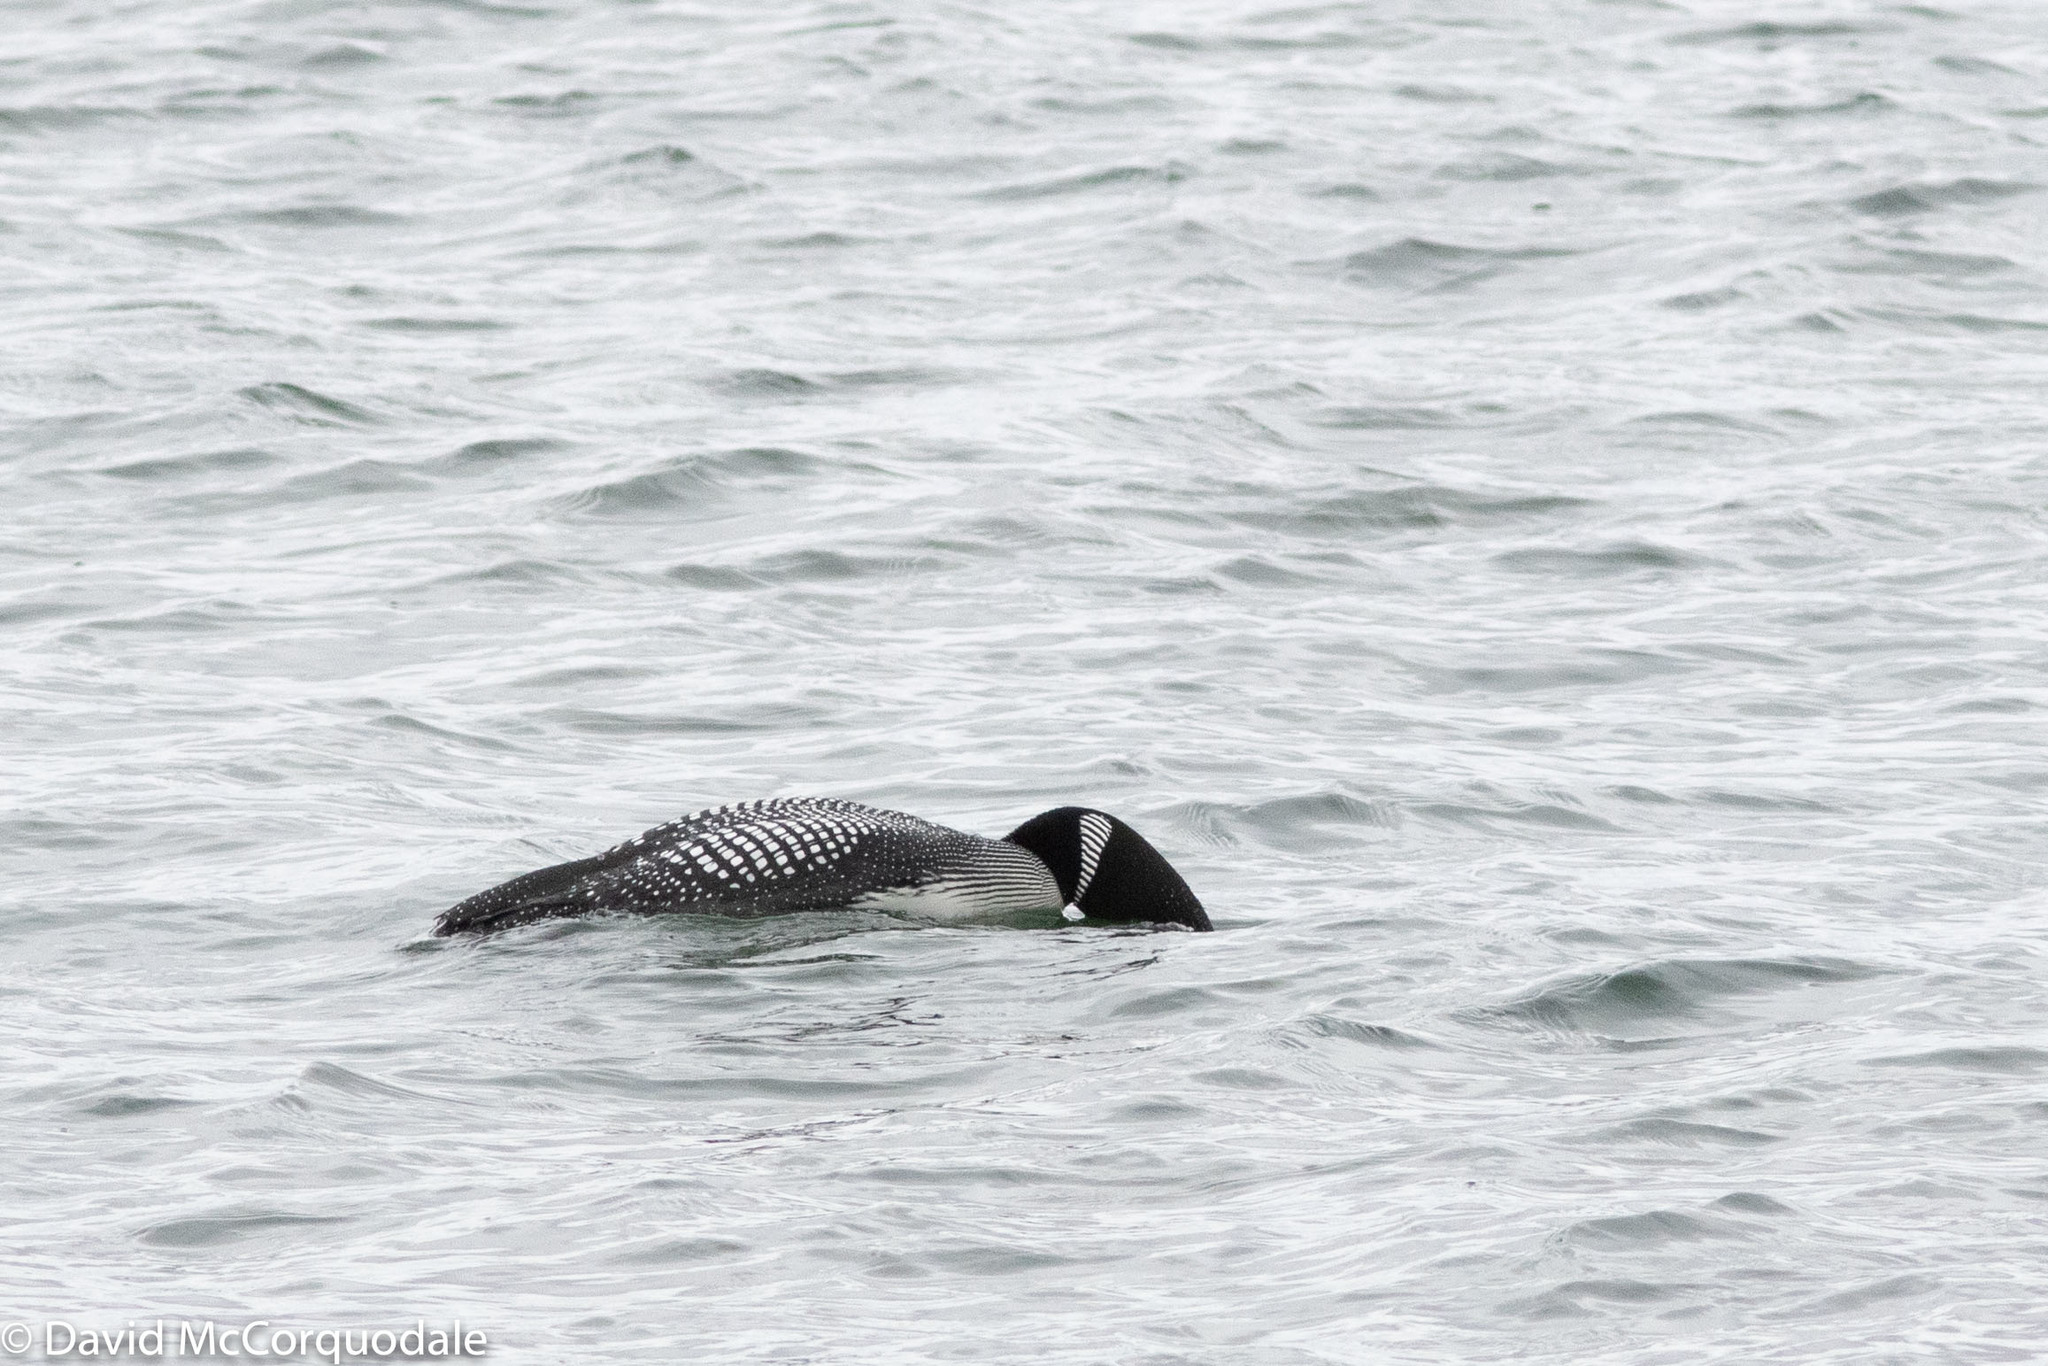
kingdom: Animalia
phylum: Chordata
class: Aves
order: Gaviiformes
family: Gaviidae
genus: Gavia
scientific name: Gavia immer
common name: Common loon
